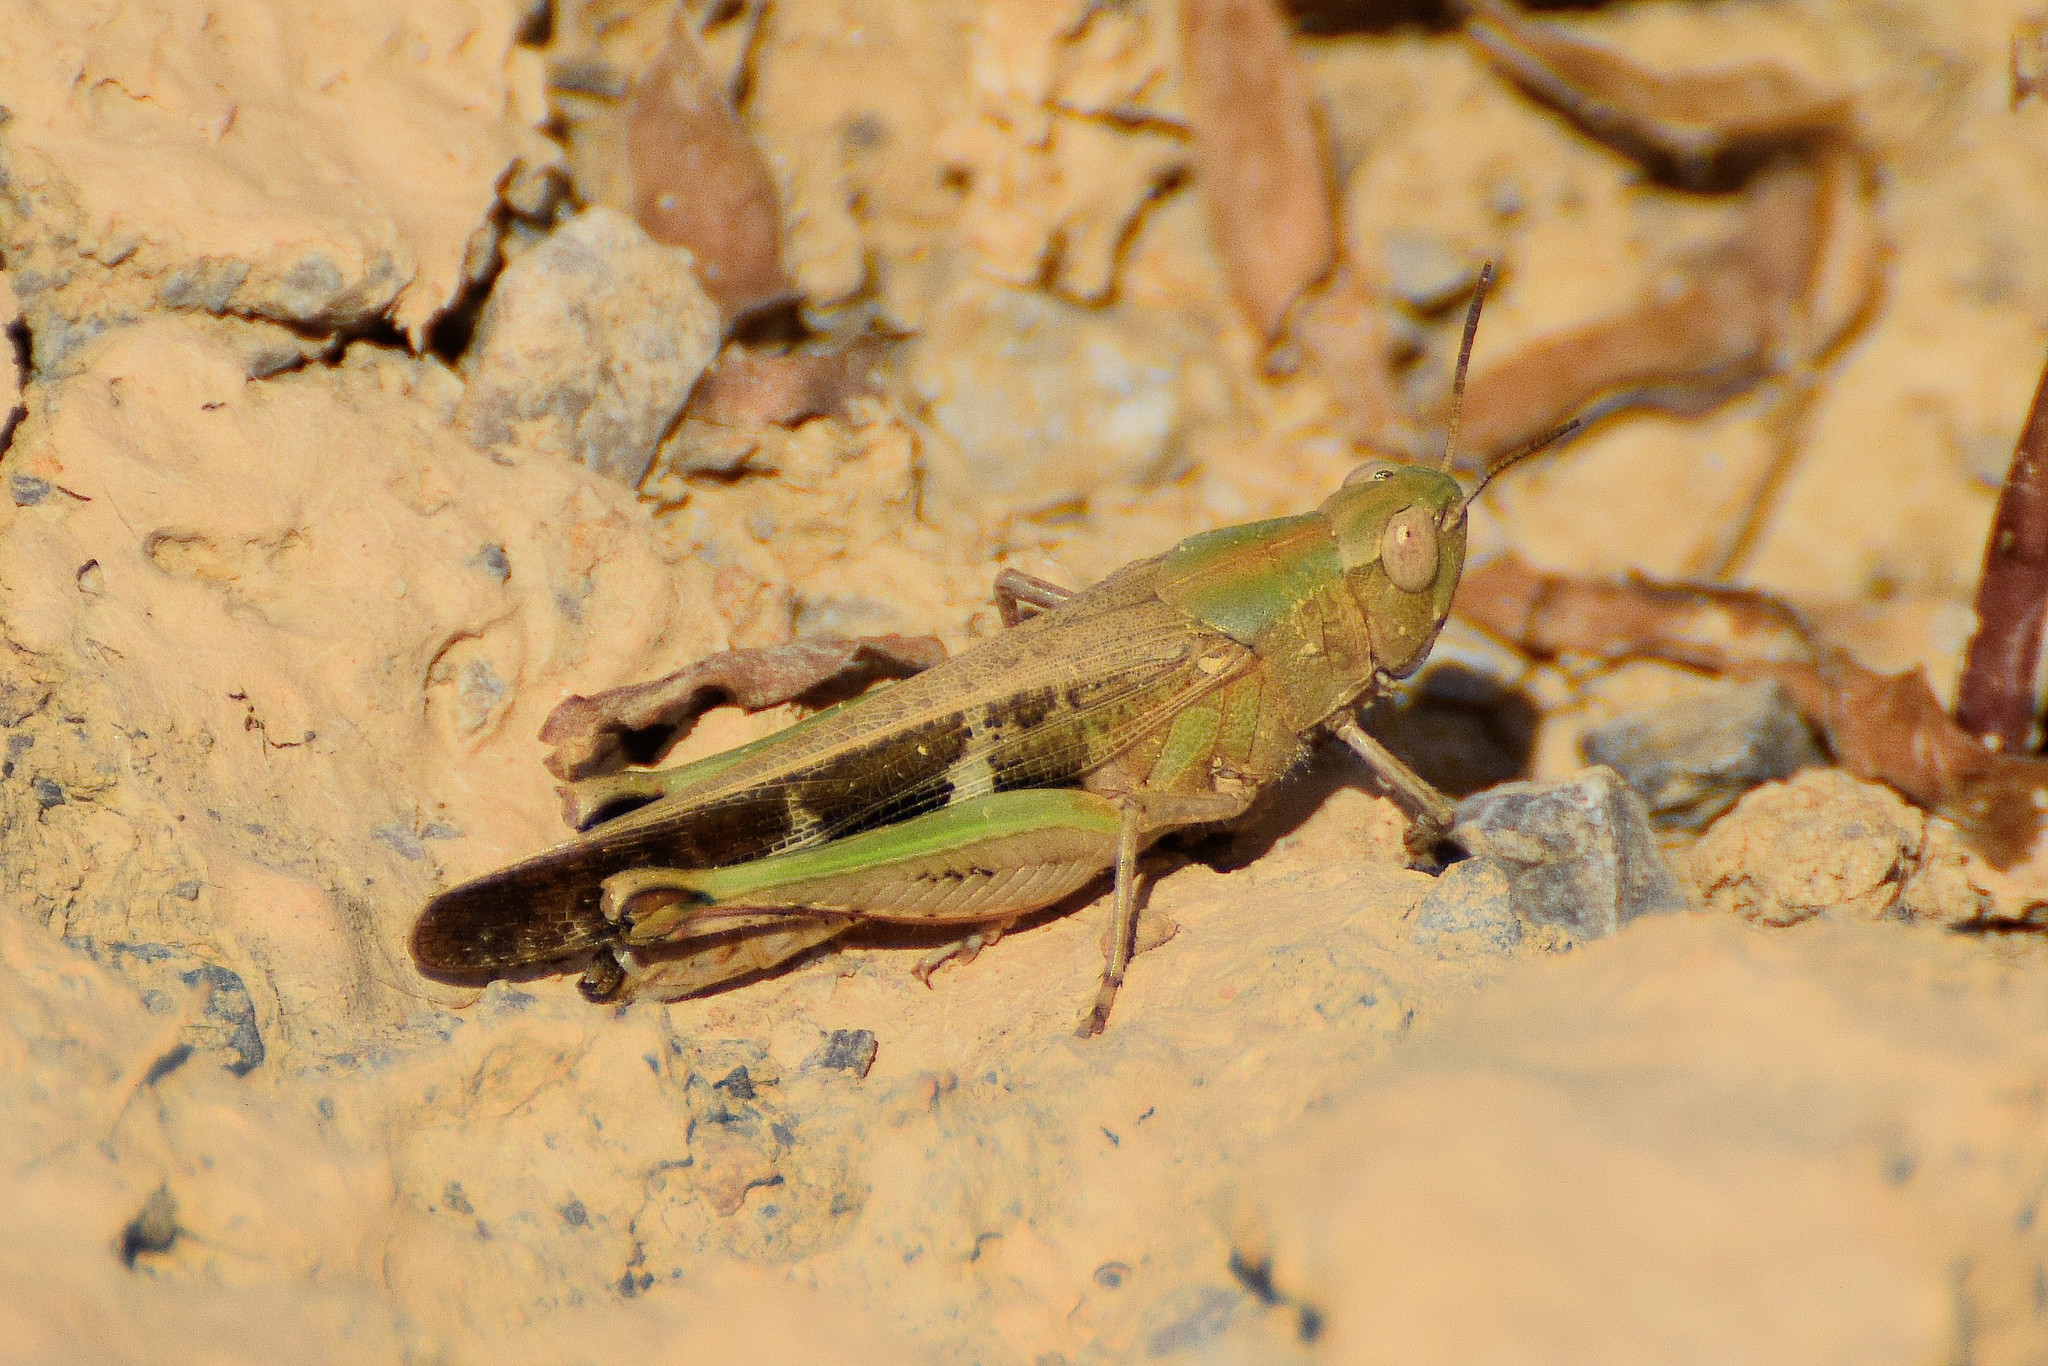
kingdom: Animalia
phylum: Arthropoda
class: Insecta
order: Orthoptera
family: Acrididae
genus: Aiolopus
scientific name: Aiolopus strepens
